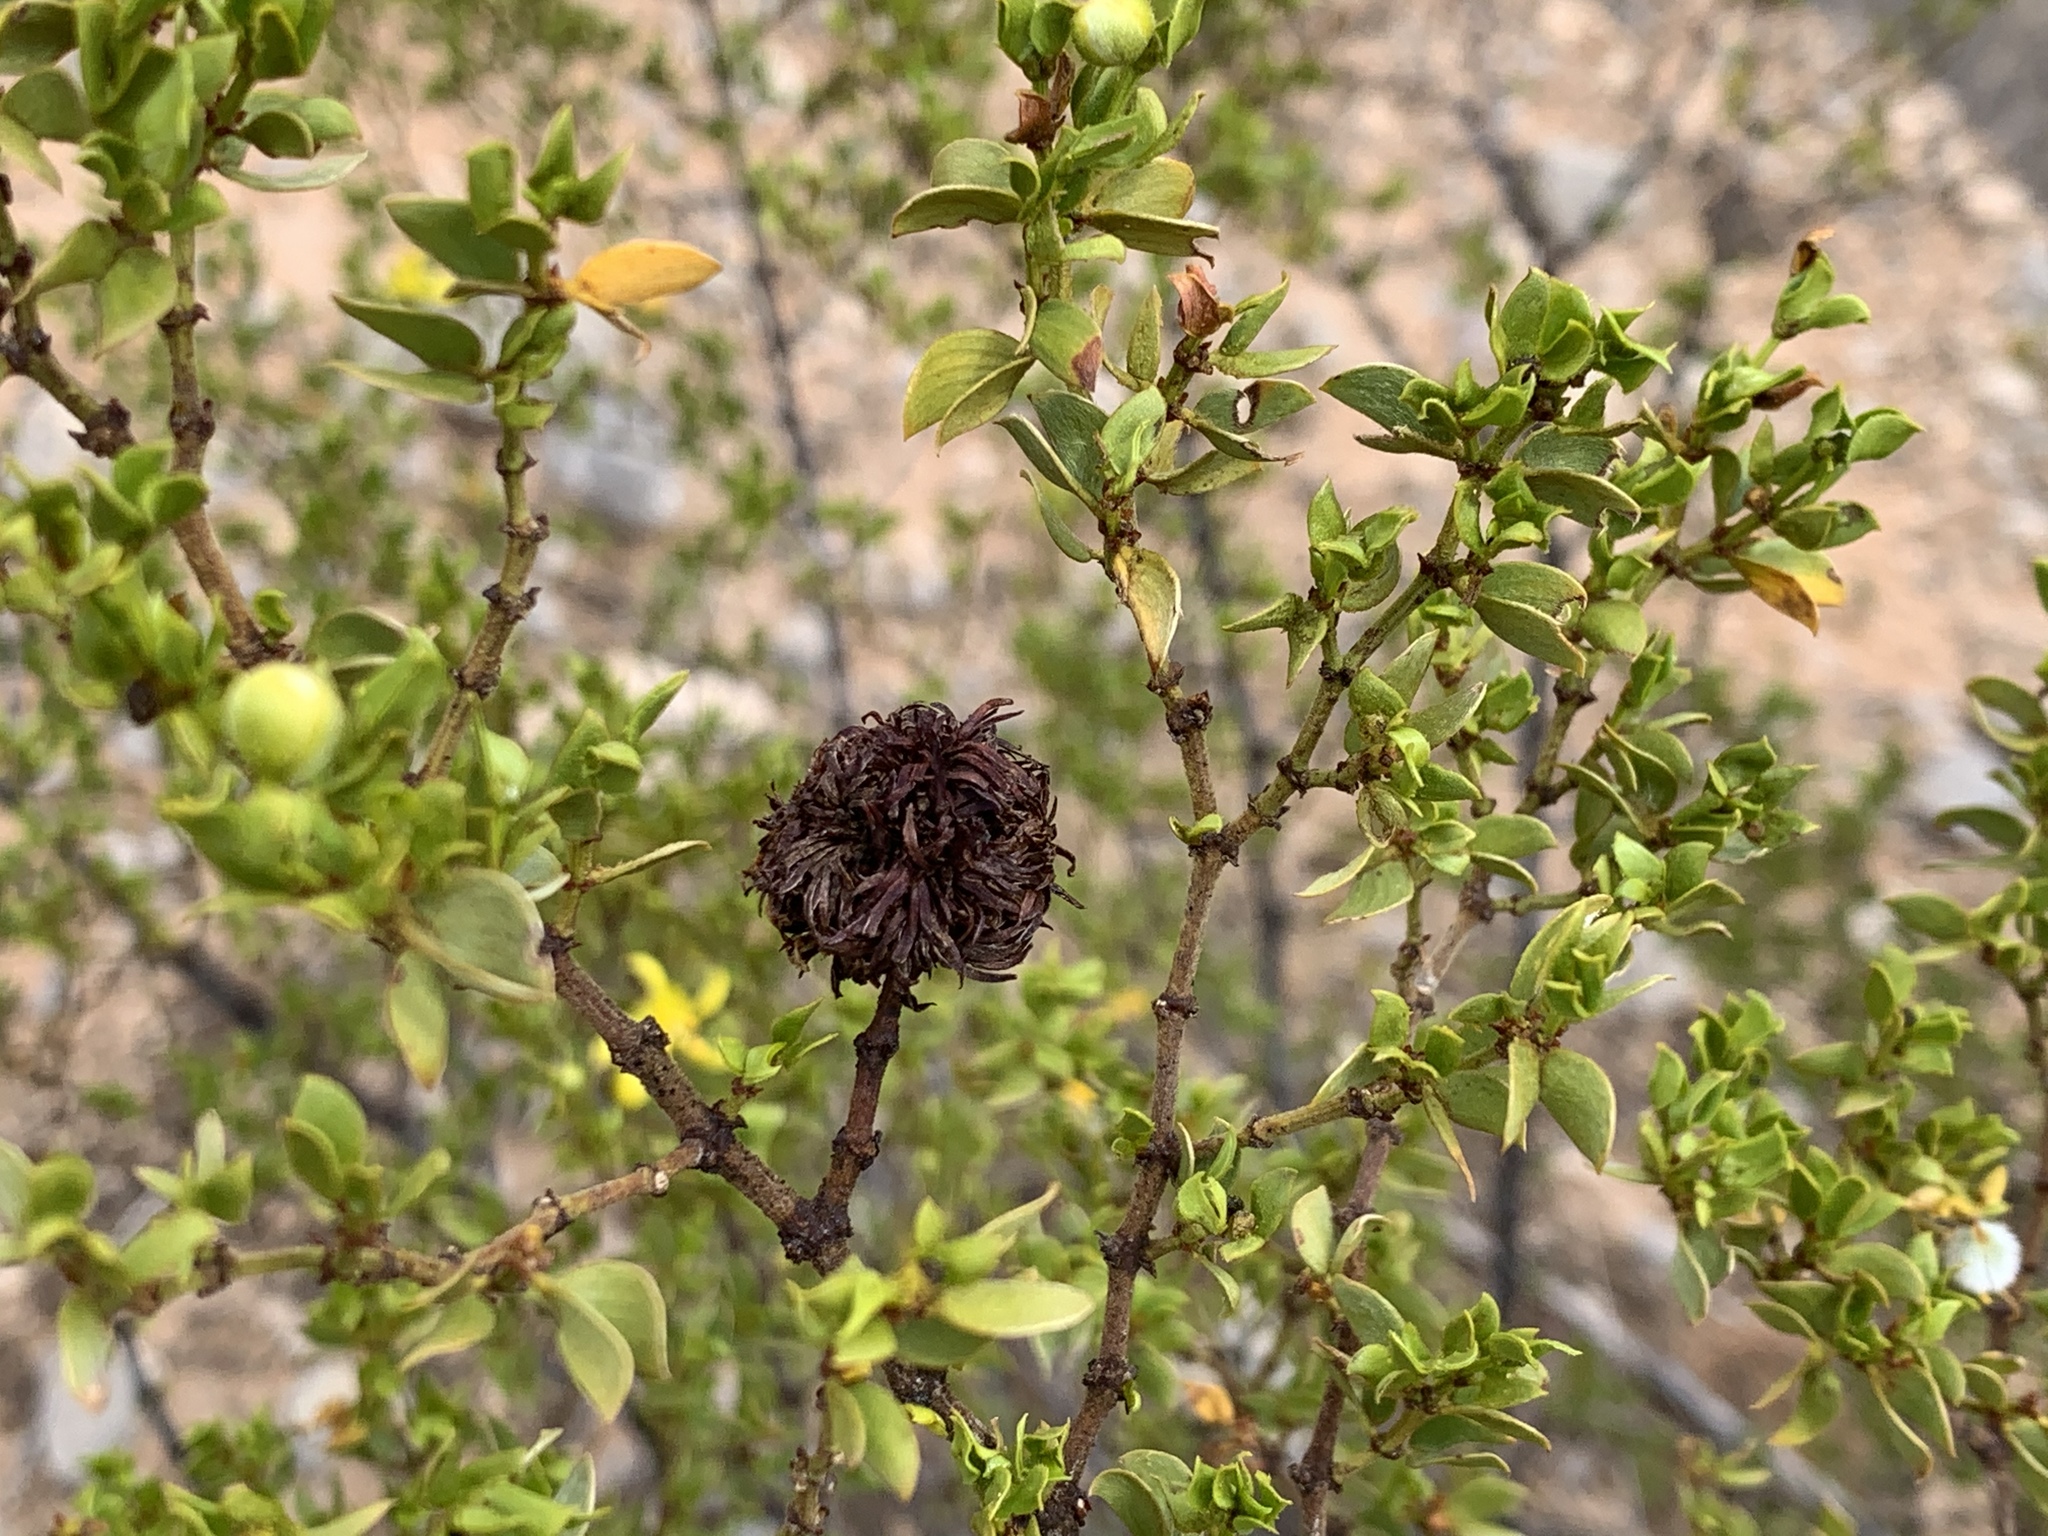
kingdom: Animalia
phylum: Arthropoda
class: Insecta
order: Diptera
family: Cecidomyiidae
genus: Asphondylia
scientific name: Asphondylia auripila
